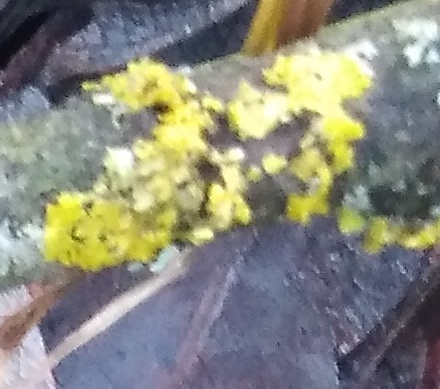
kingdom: Fungi
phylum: Ascomycota
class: Lecanoromycetes
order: Teloschistales
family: Teloschistaceae
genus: Xanthoria
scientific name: Xanthoria parietina
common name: Common orange lichen
